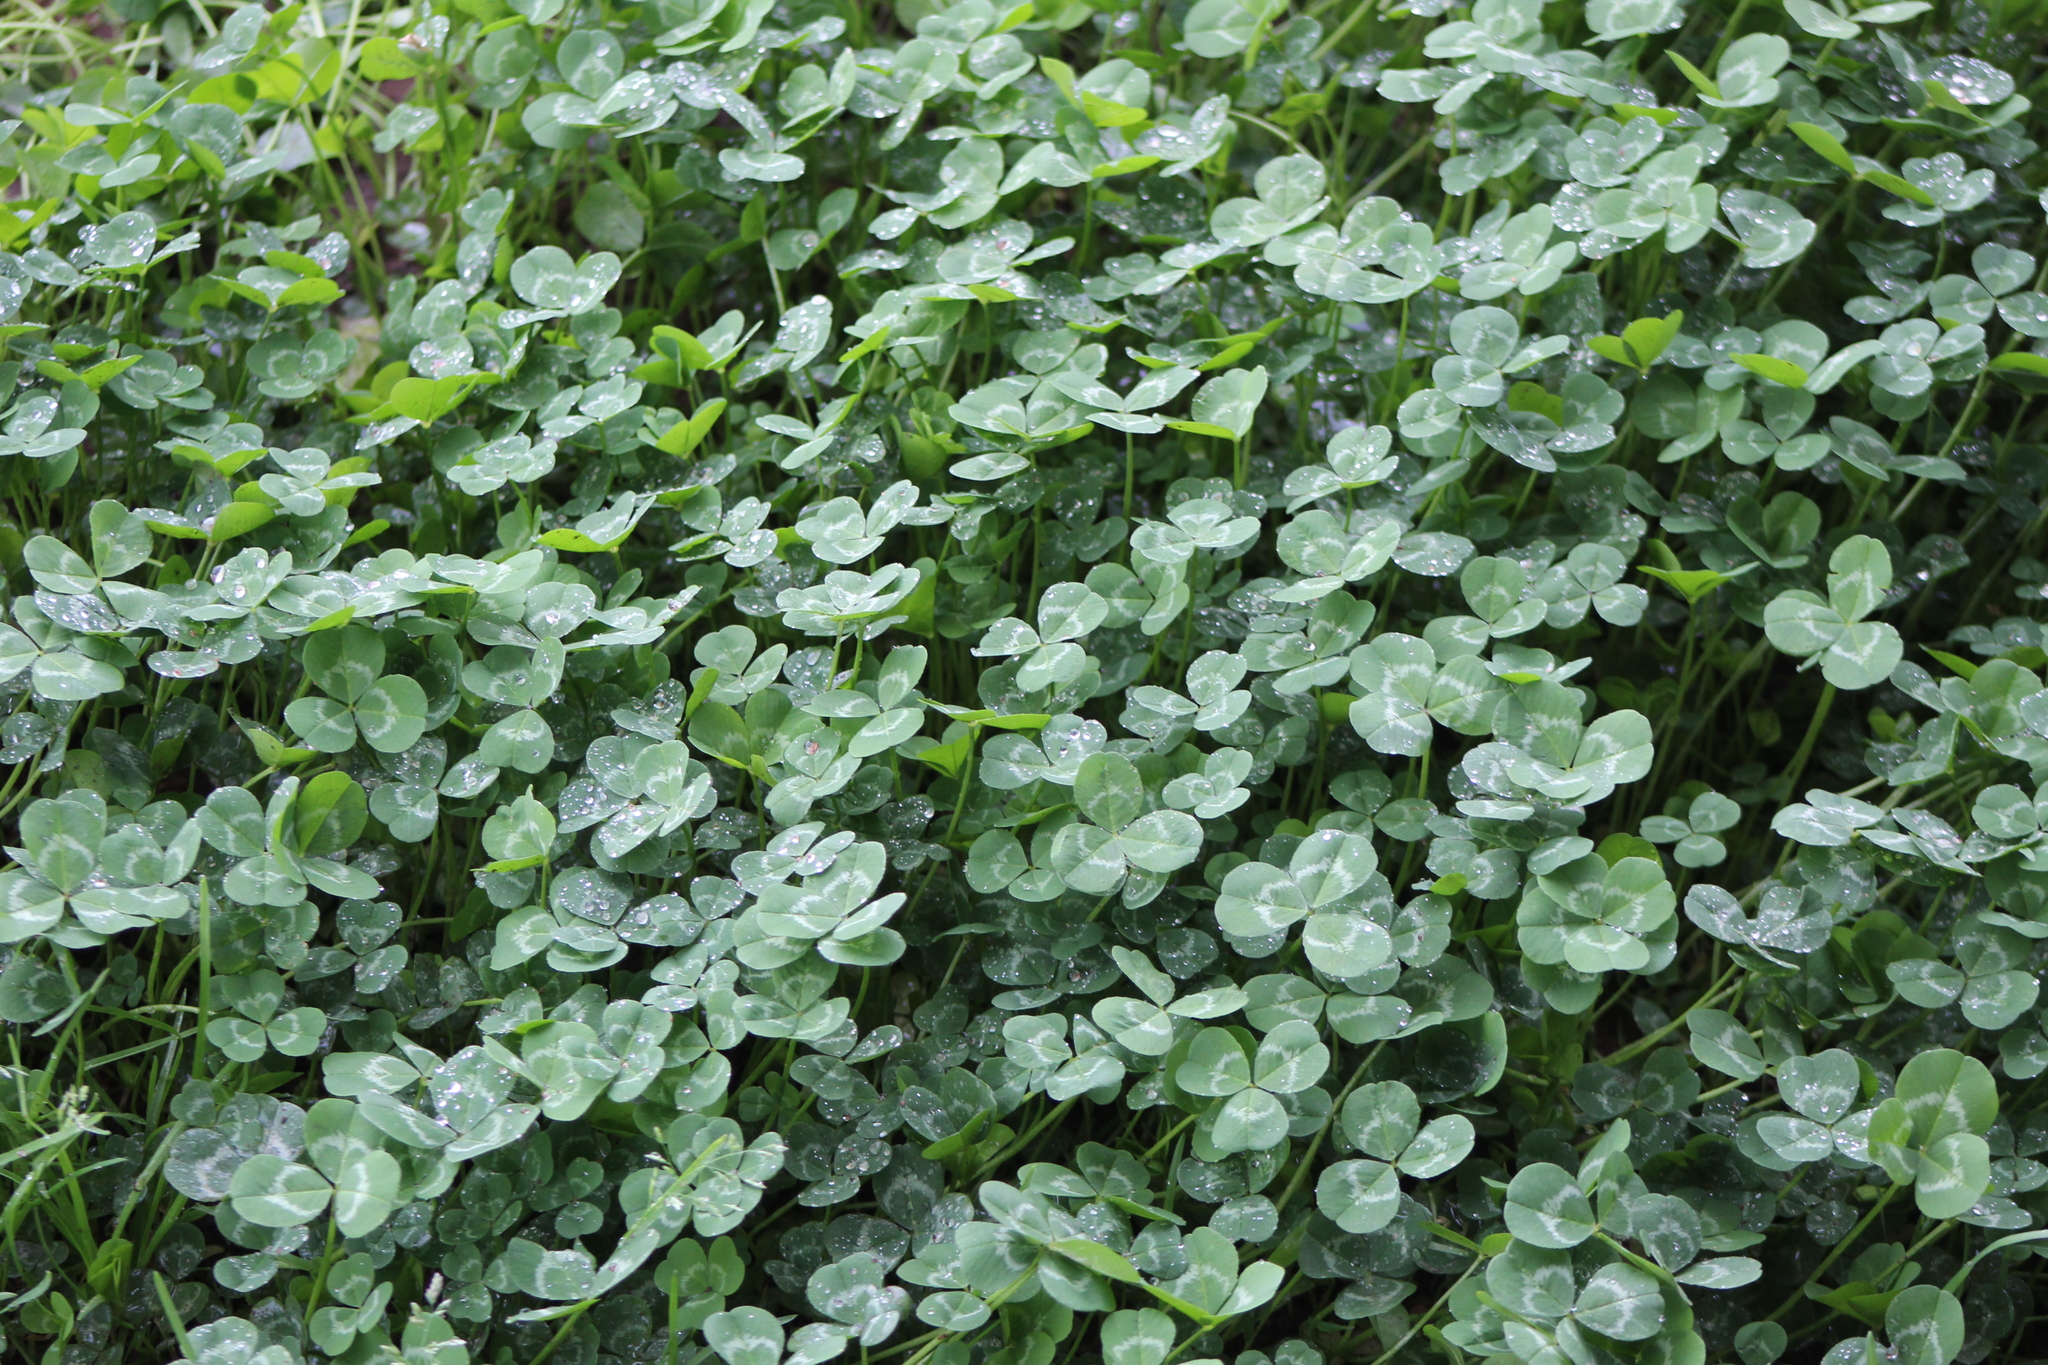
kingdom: Plantae
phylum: Tracheophyta
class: Magnoliopsida
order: Fabales
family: Fabaceae
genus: Trifolium
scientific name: Trifolium repens
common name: White clover
